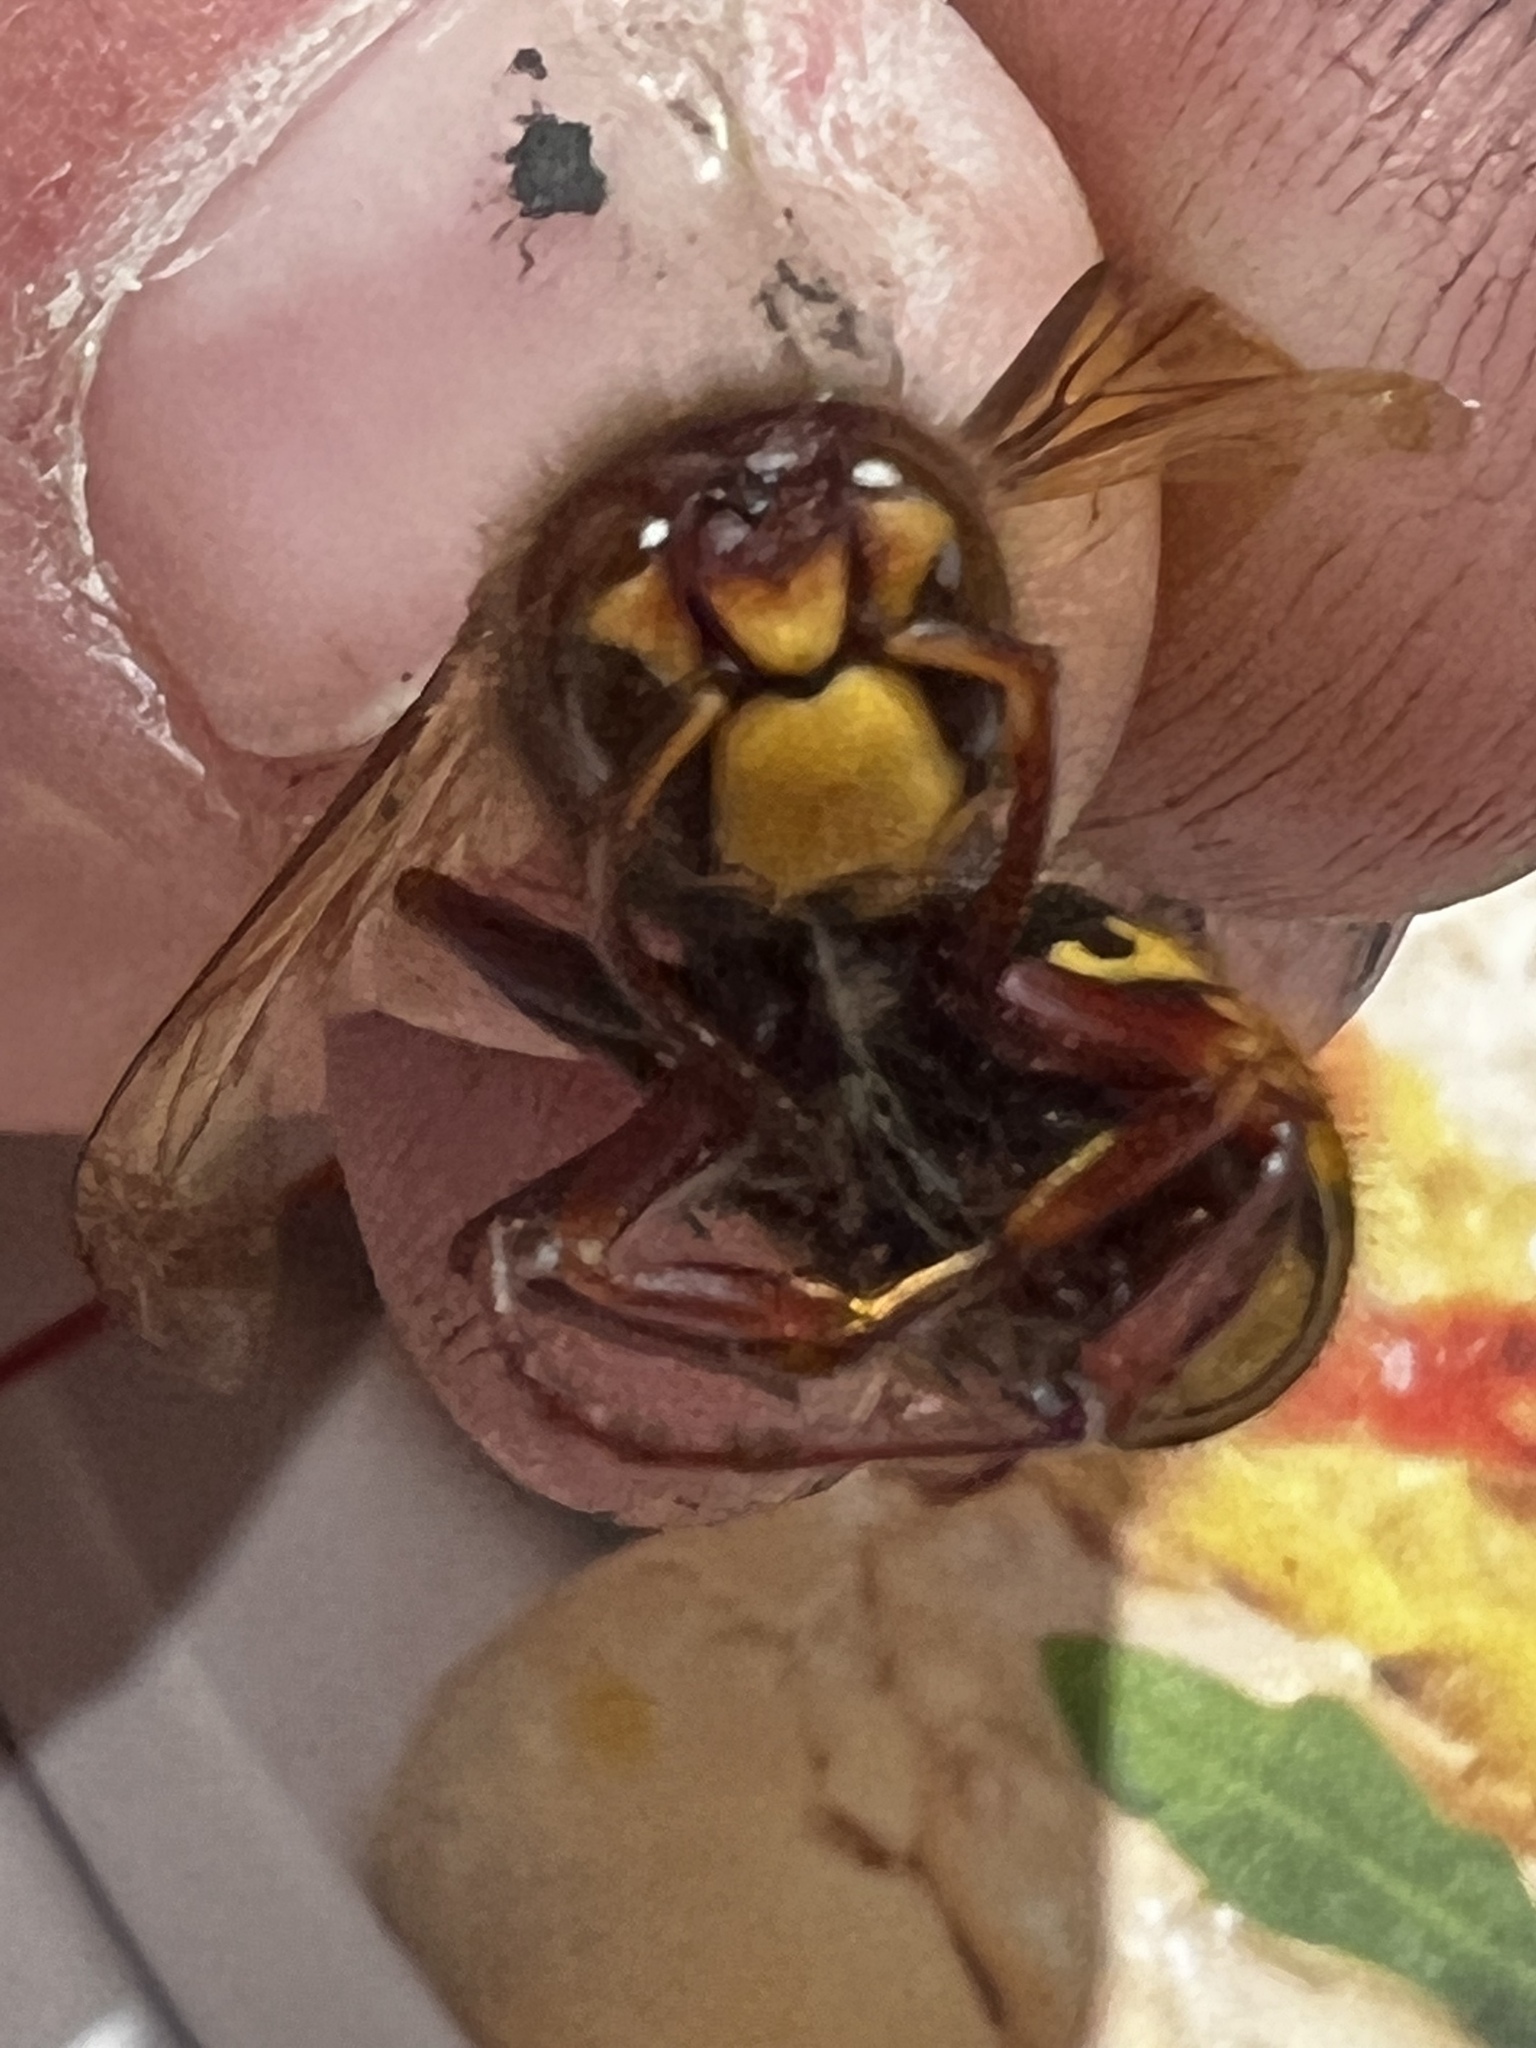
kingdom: Animalia
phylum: Arthropoda
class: Insecta
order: Hymenoptera
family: Vespidae
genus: Vespa
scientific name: Vespa crabro
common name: Hornet
